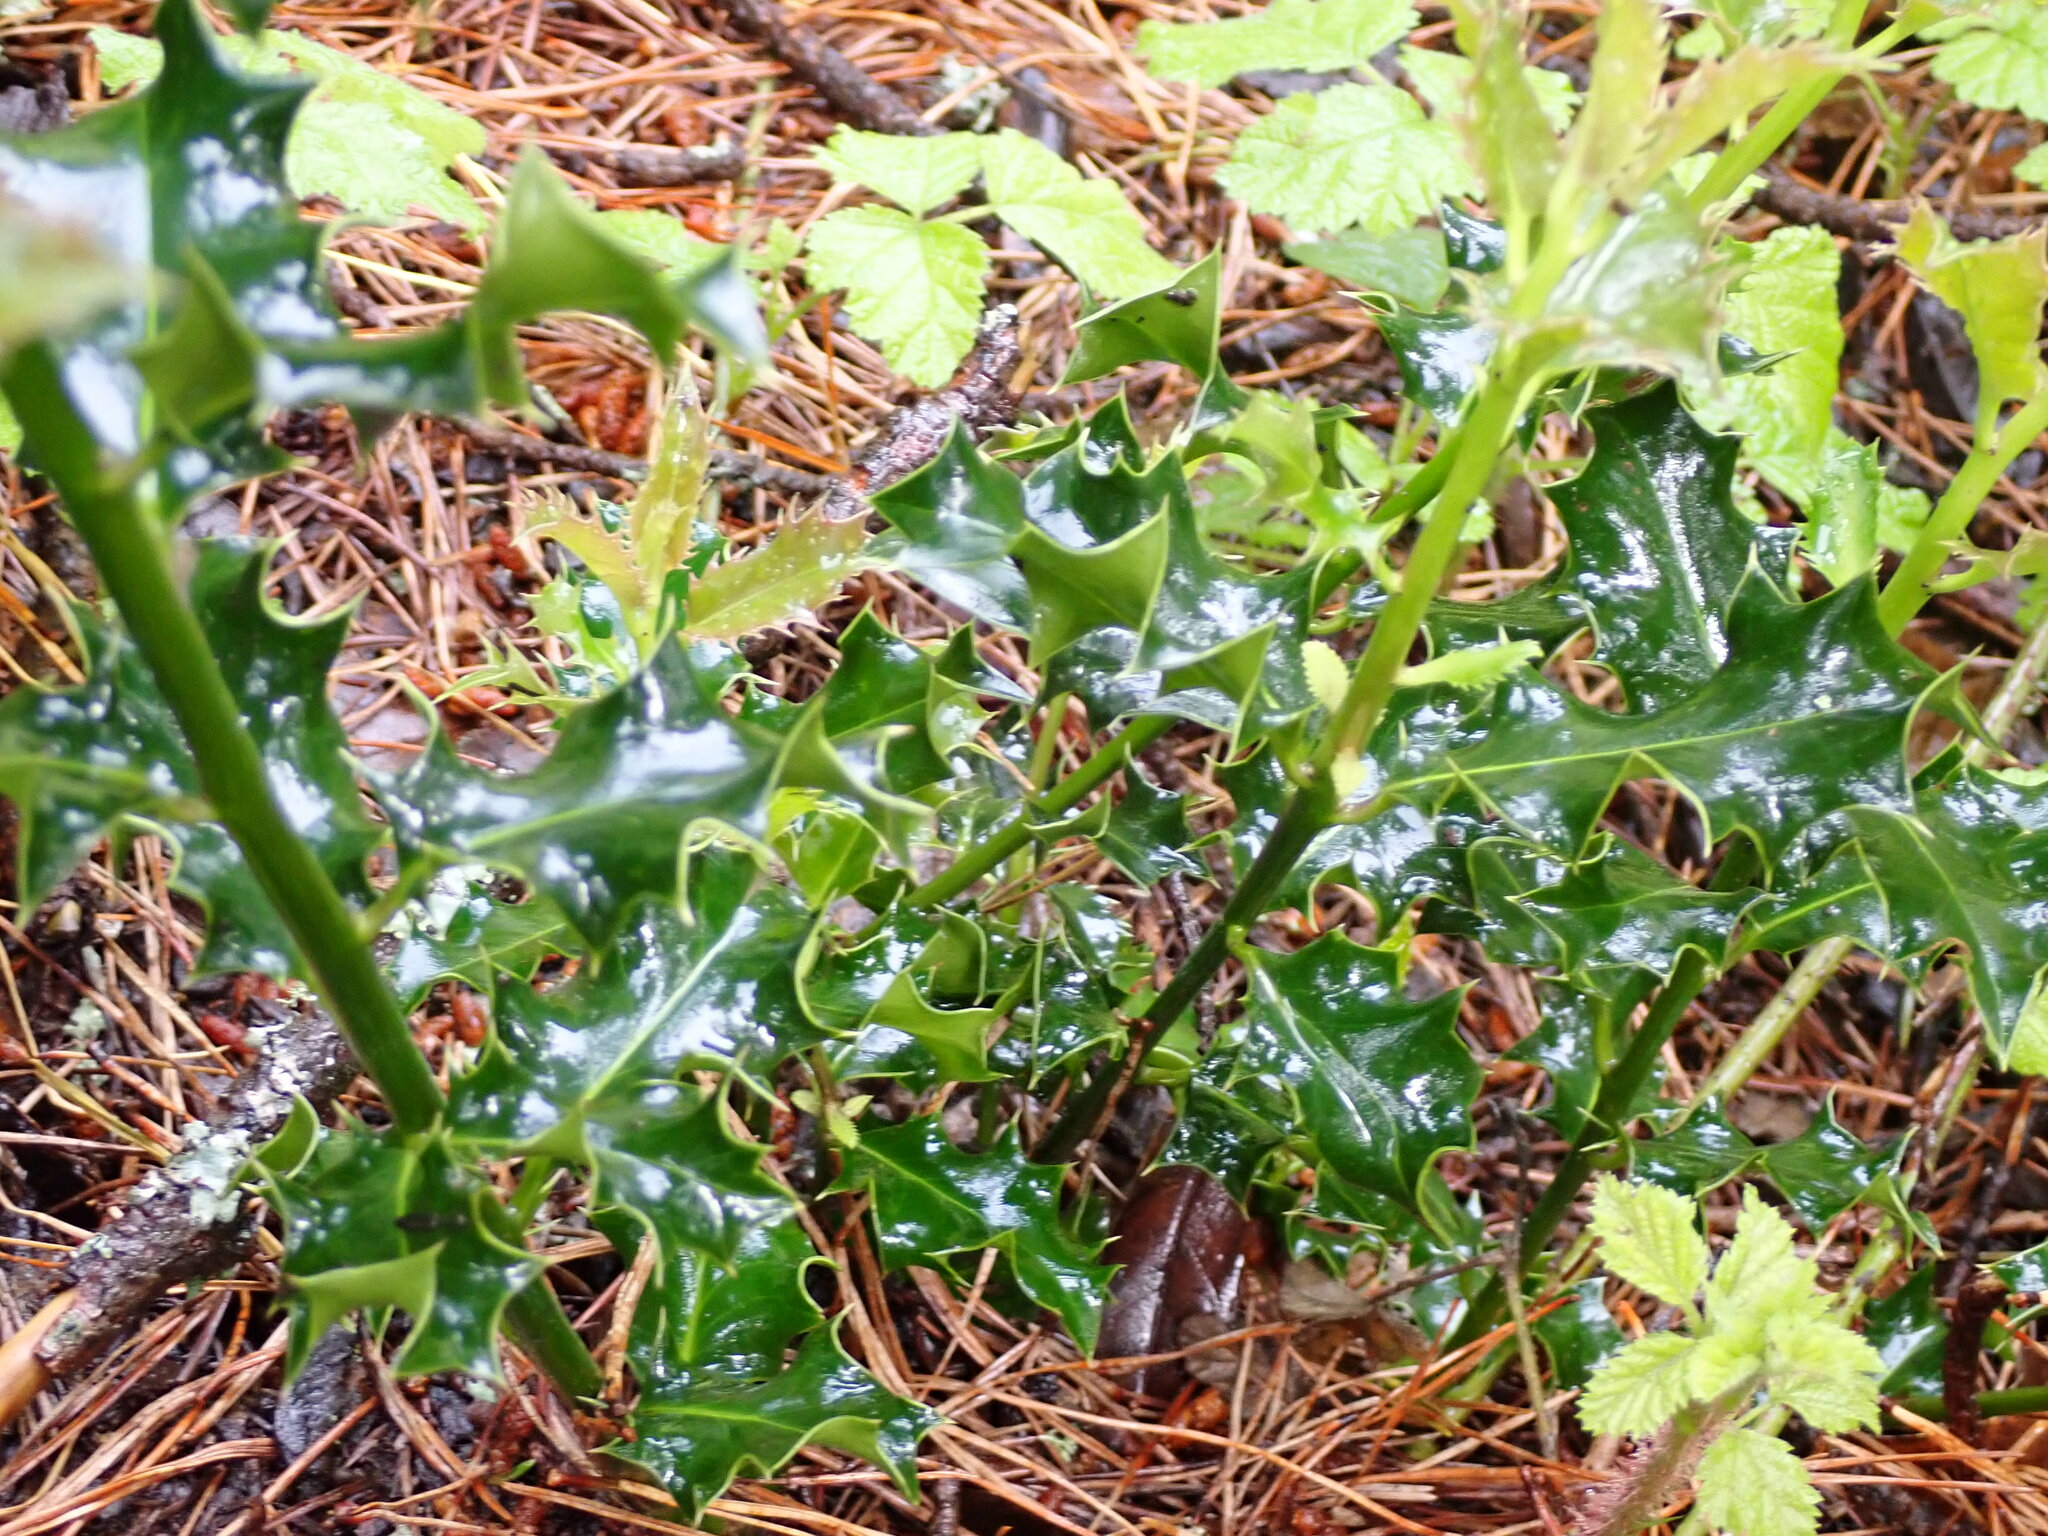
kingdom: Plantae
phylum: Tracheophyta
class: Magnoliopsida
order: Aquifoliales
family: Aquifoliaceae
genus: Ilex
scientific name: Ilex aquifolium
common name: English holly
